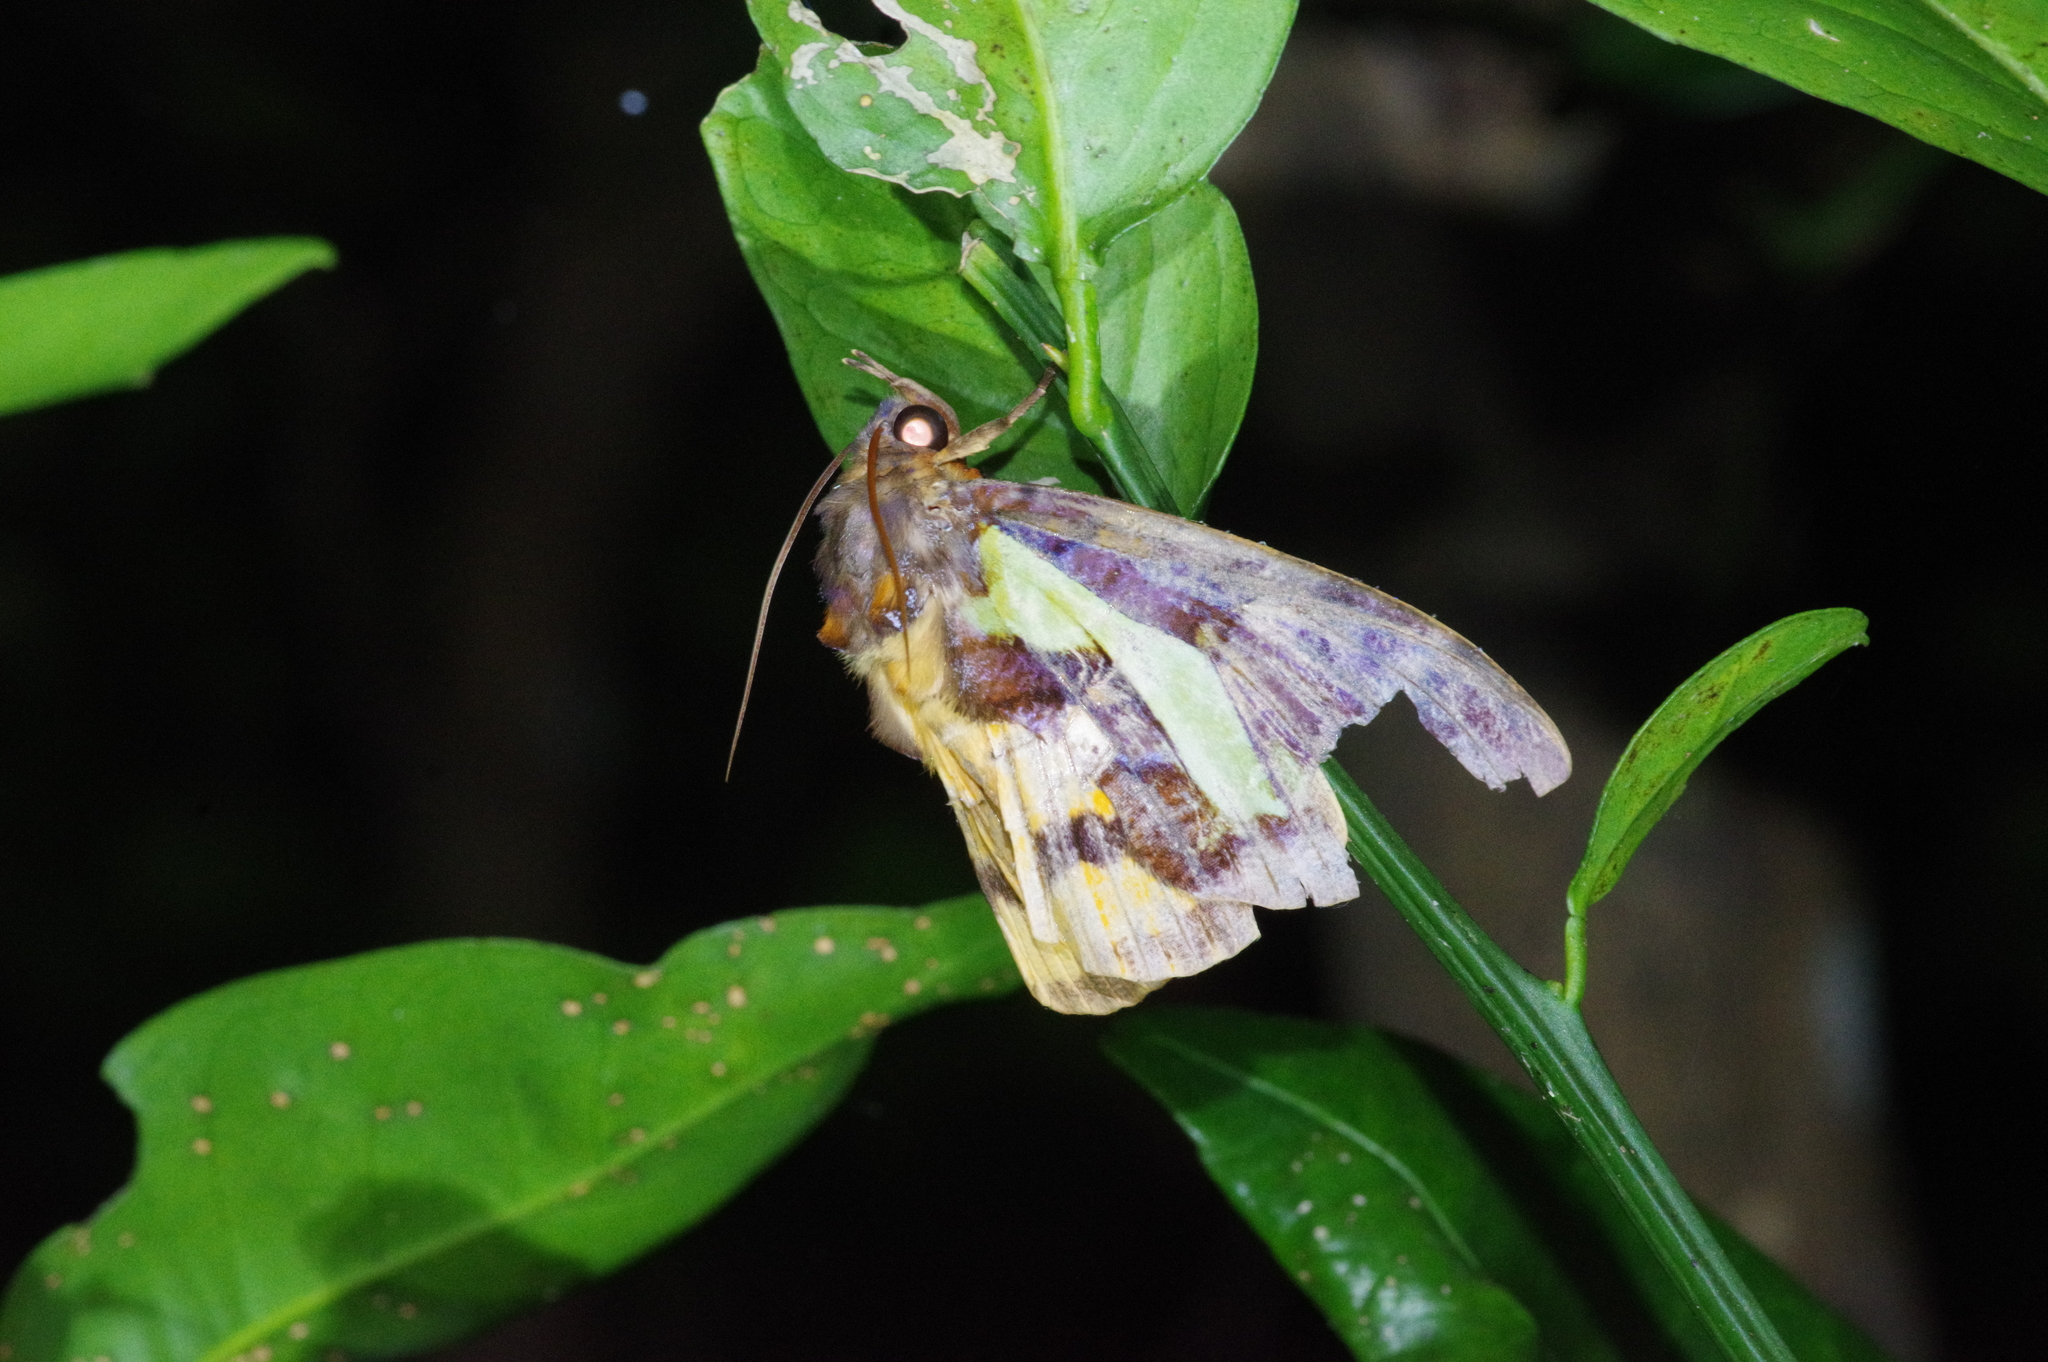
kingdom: Animalia
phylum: Arthropoda
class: Insecta
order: Lepidoptera
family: Erebidae
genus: Eudocima
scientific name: Eudocima homaena
